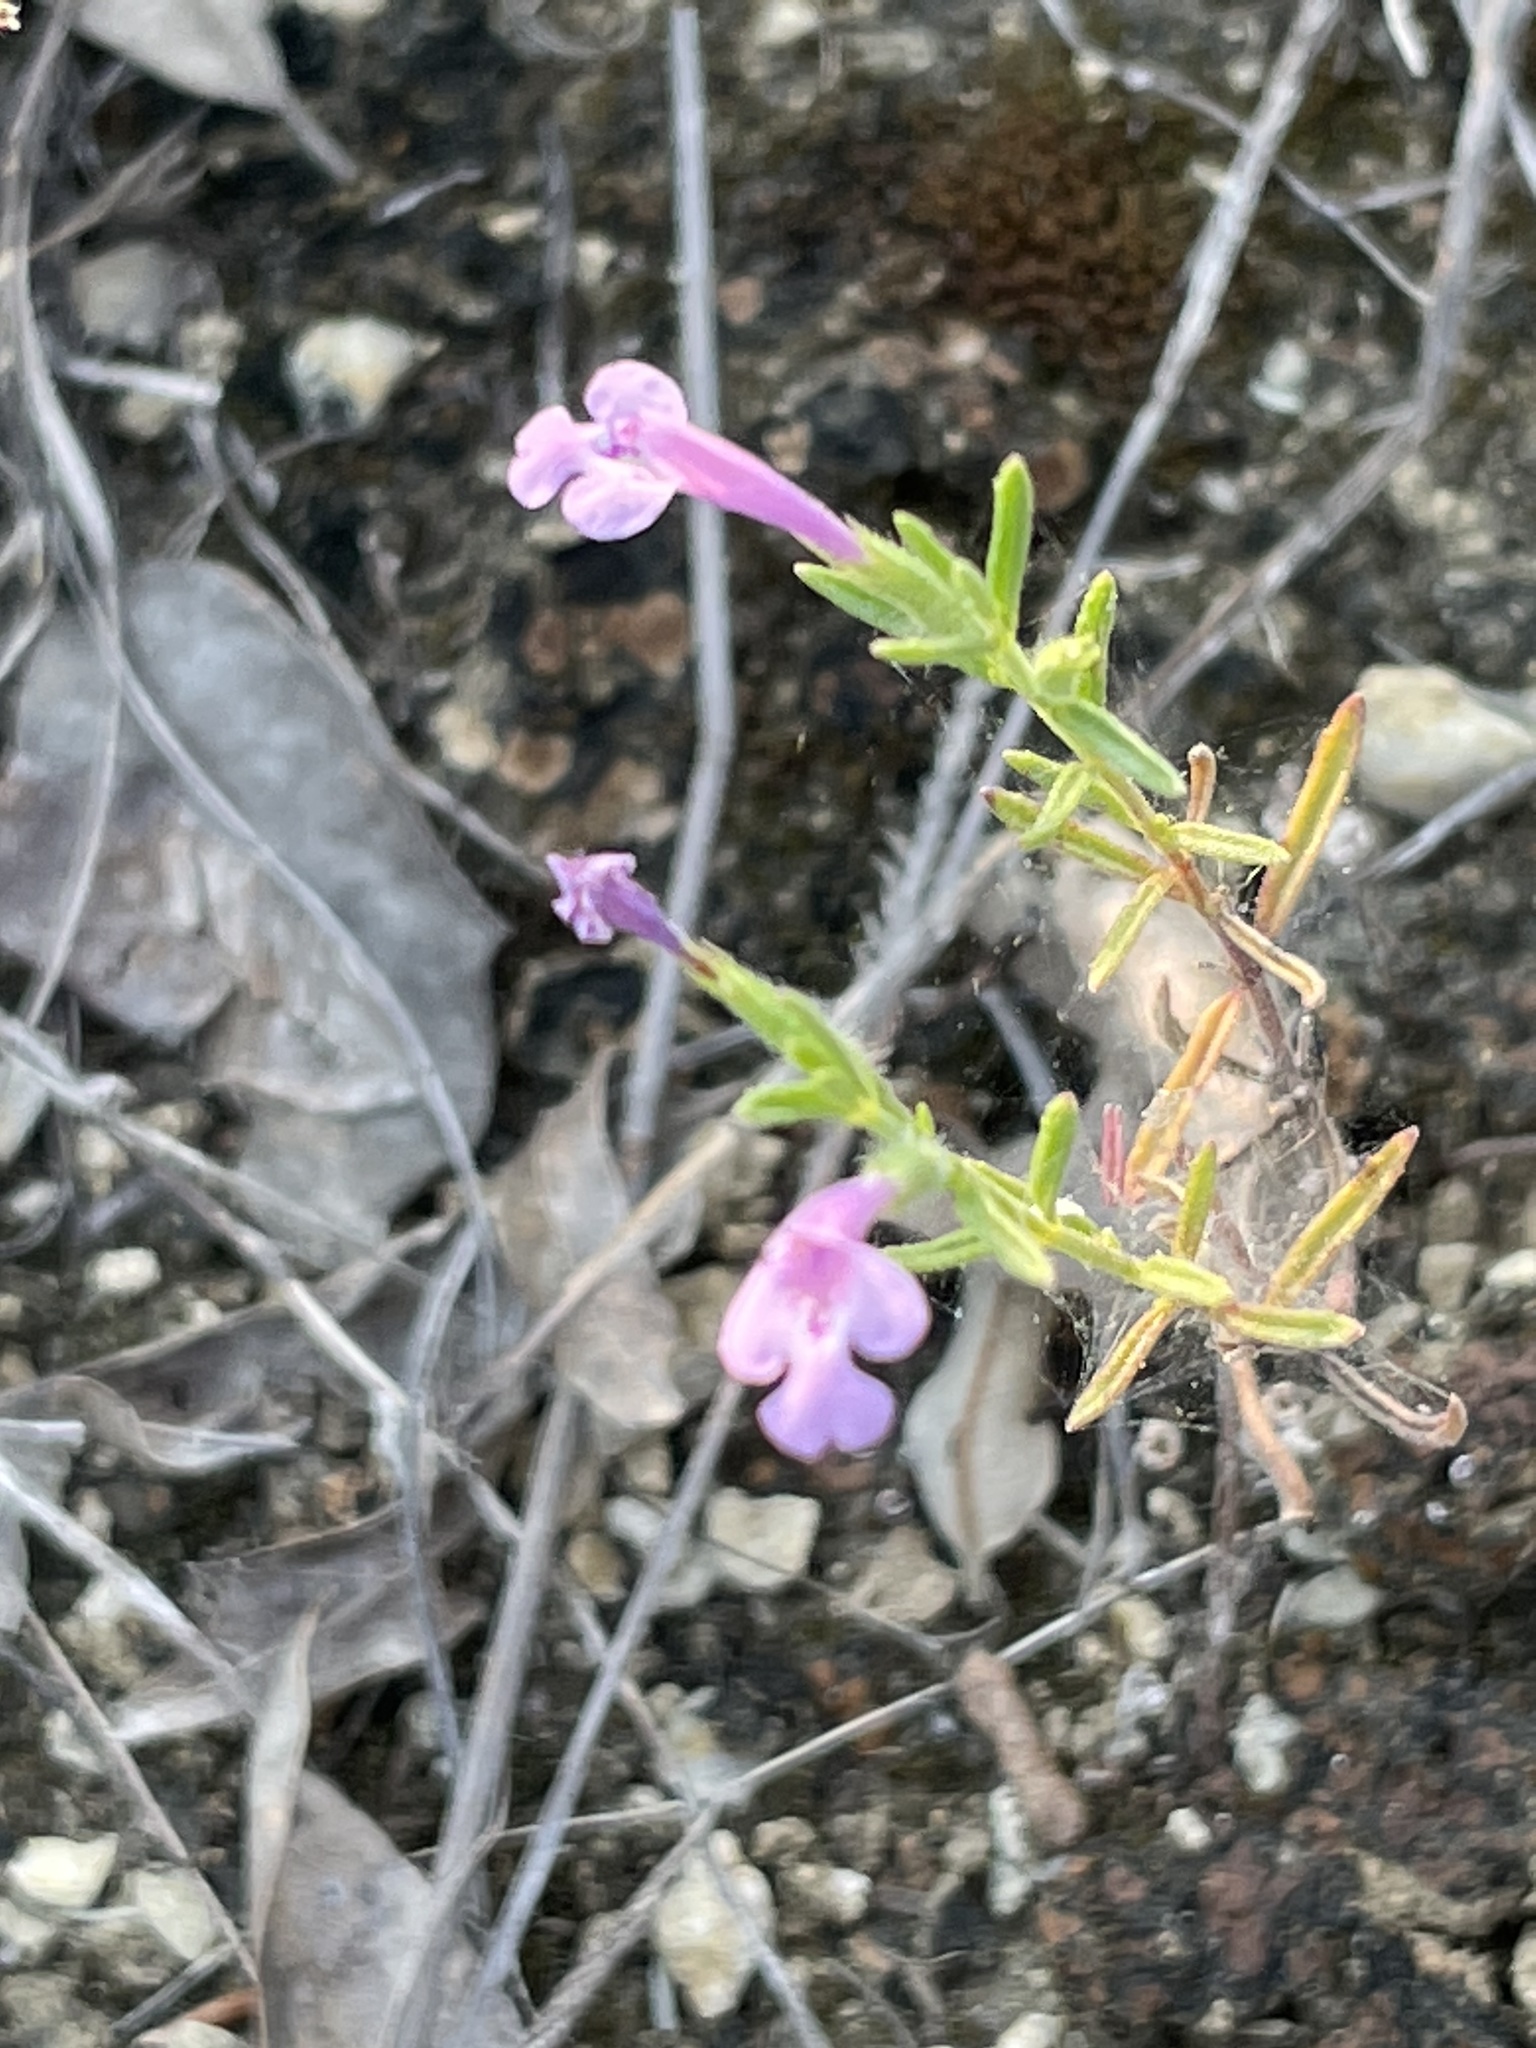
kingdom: Plantae
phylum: Tracheophyta
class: Magnoliopsida
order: Lamiales
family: Lamiaceae
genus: Hedeoma
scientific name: Hedeoma reverchonii
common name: Reverchon's false penny-royal
